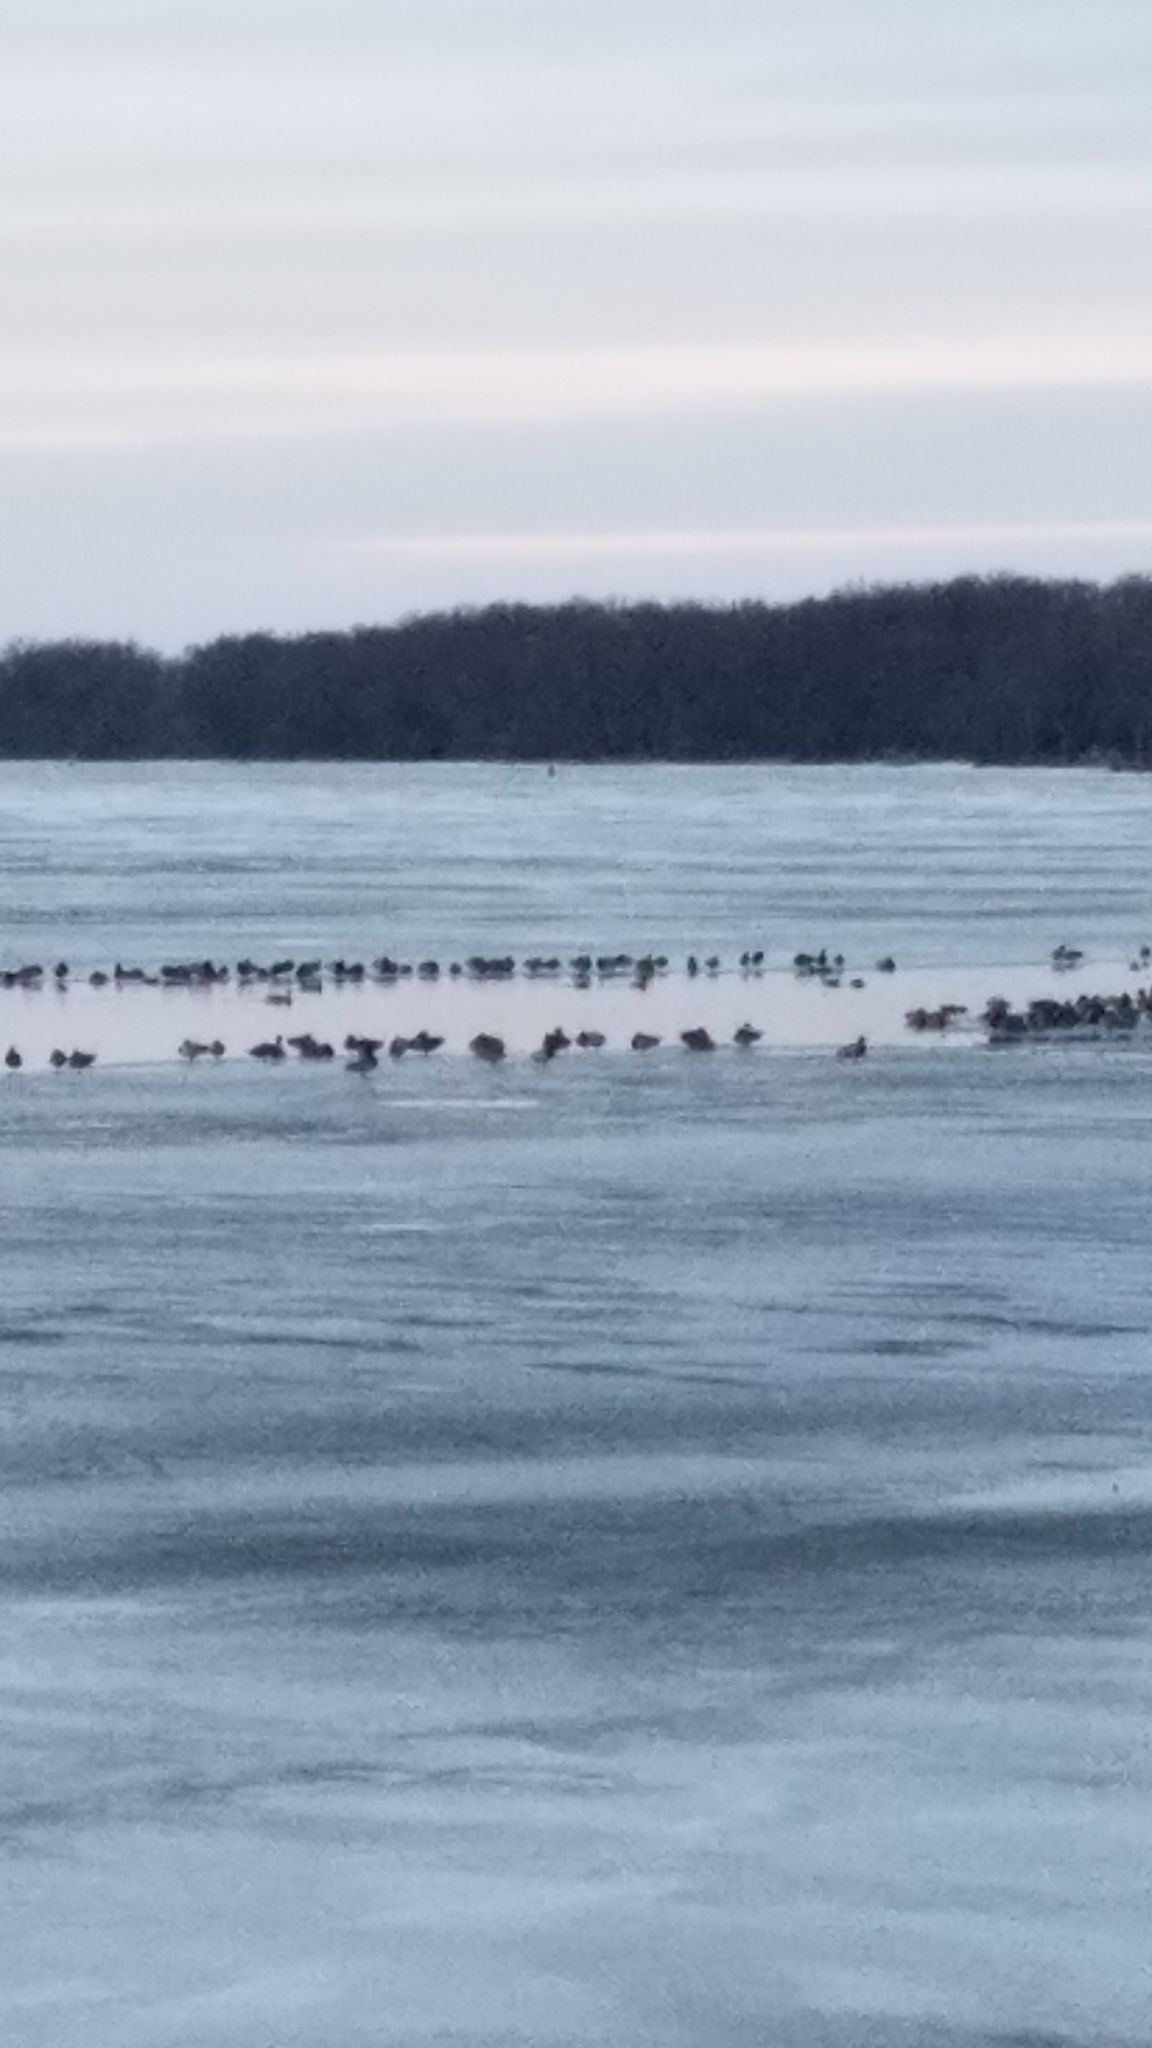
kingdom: Animalia
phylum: Chordata
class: Aves
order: Anseriformes
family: Anatidae
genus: Anas
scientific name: Anas platyrhynchos
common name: Mallard
